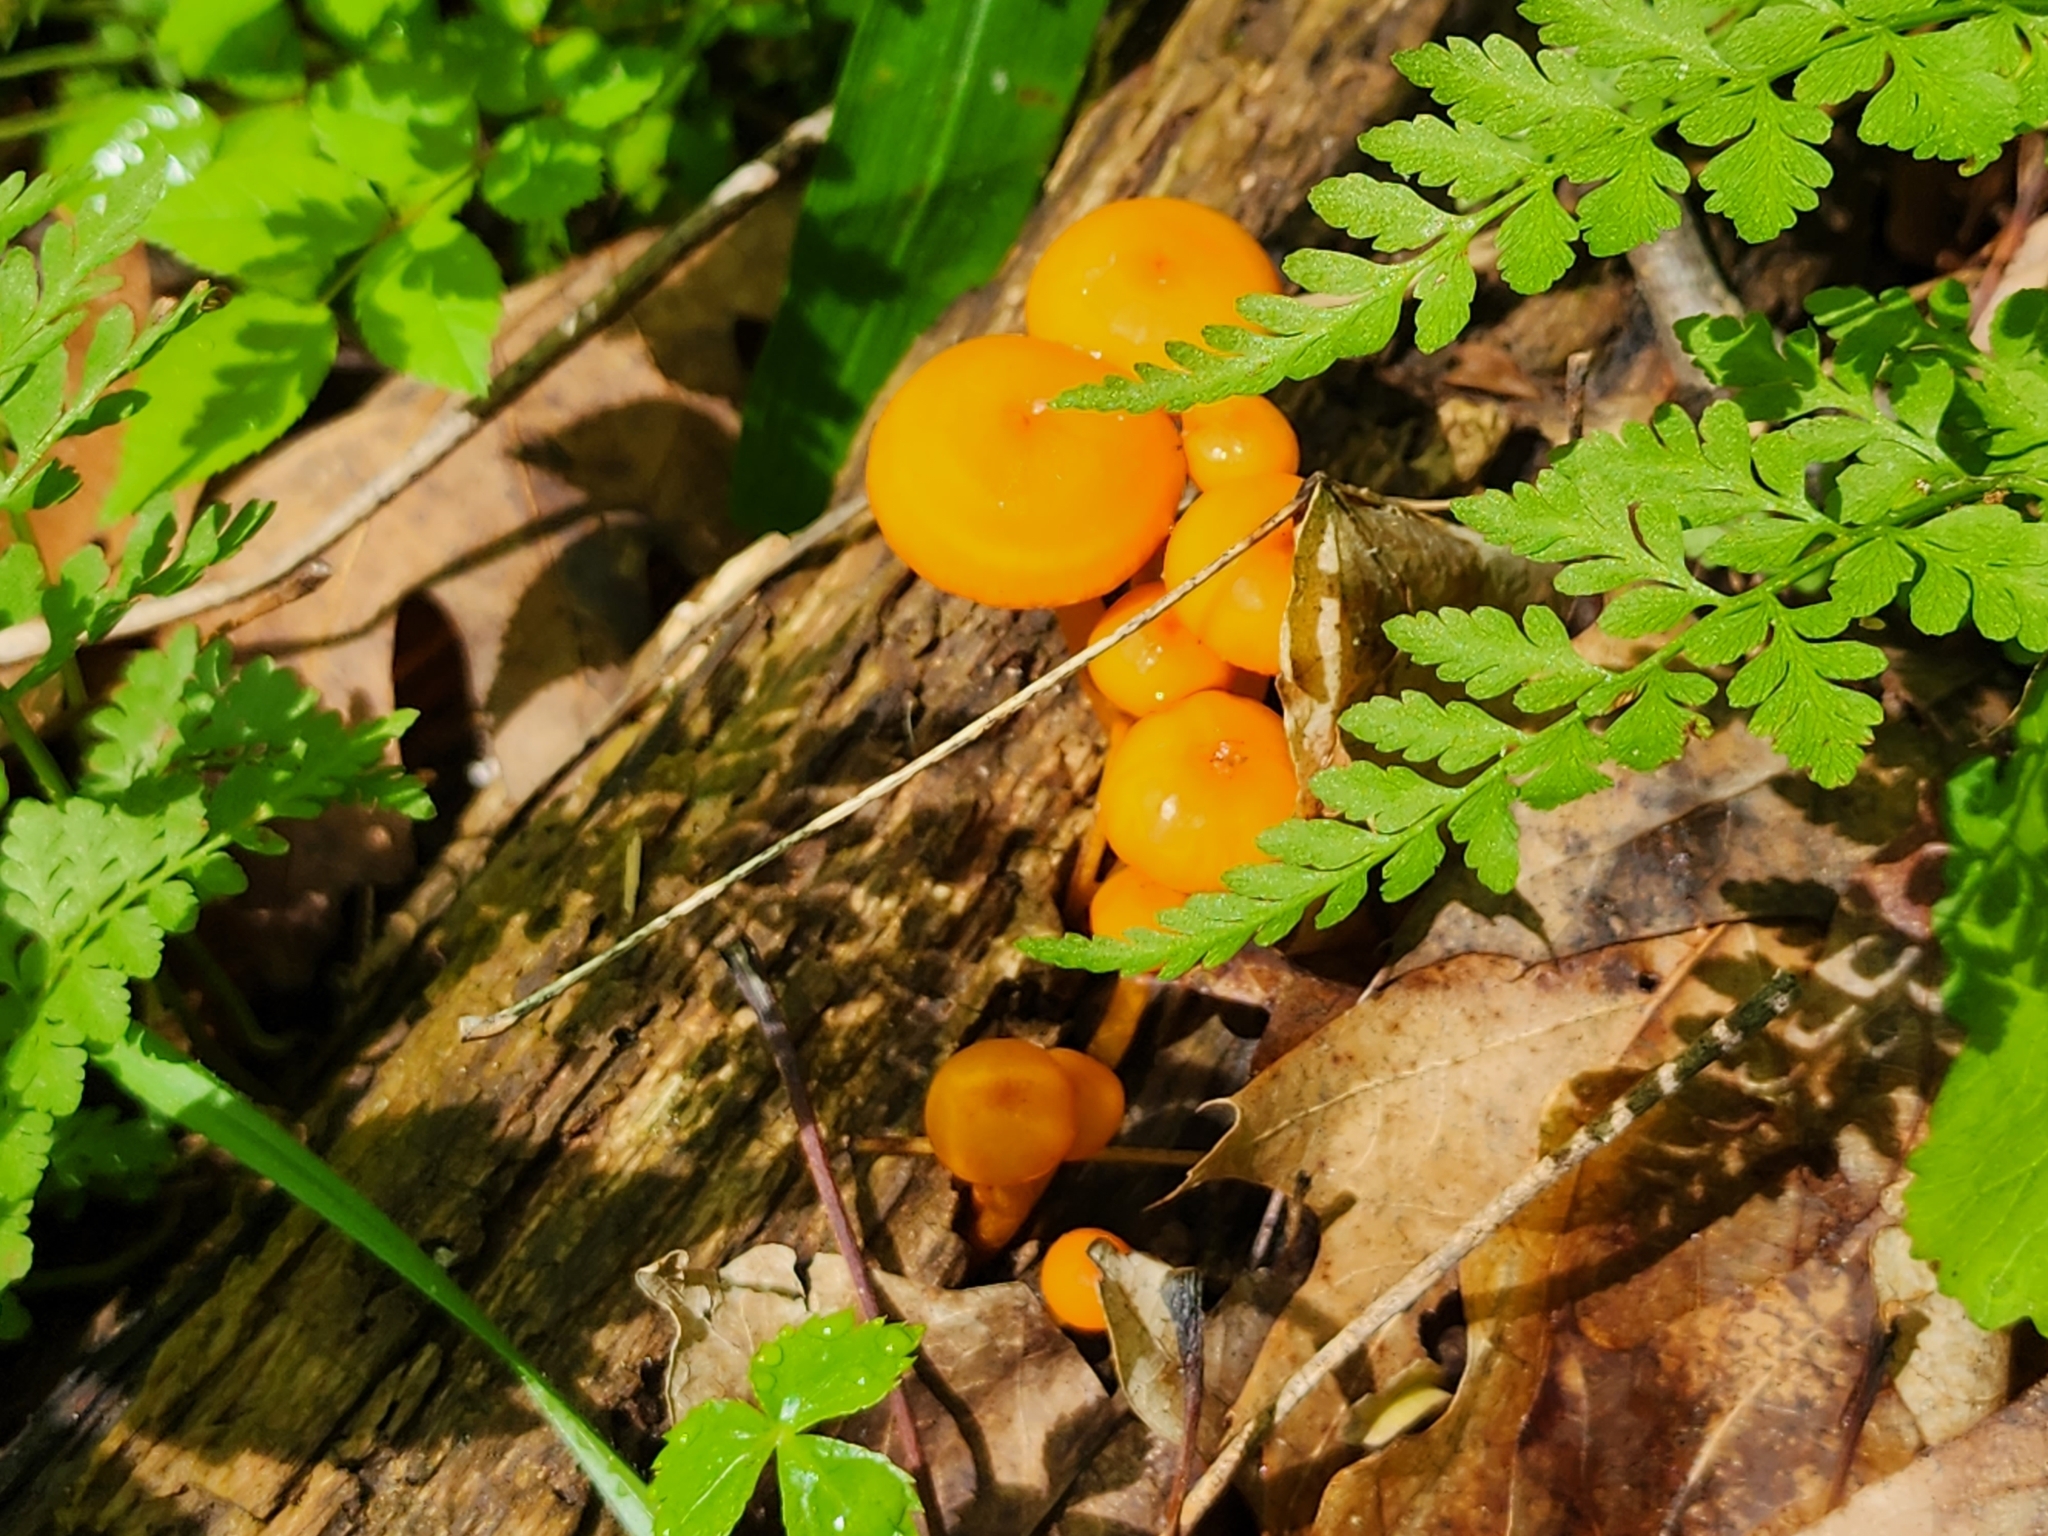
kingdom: Fungi
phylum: Basidiomycota
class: Agaricomycetes
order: Agaricales
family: Mycenaceae
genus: Mycena
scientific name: Mycena leaiana
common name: Orange mycena
